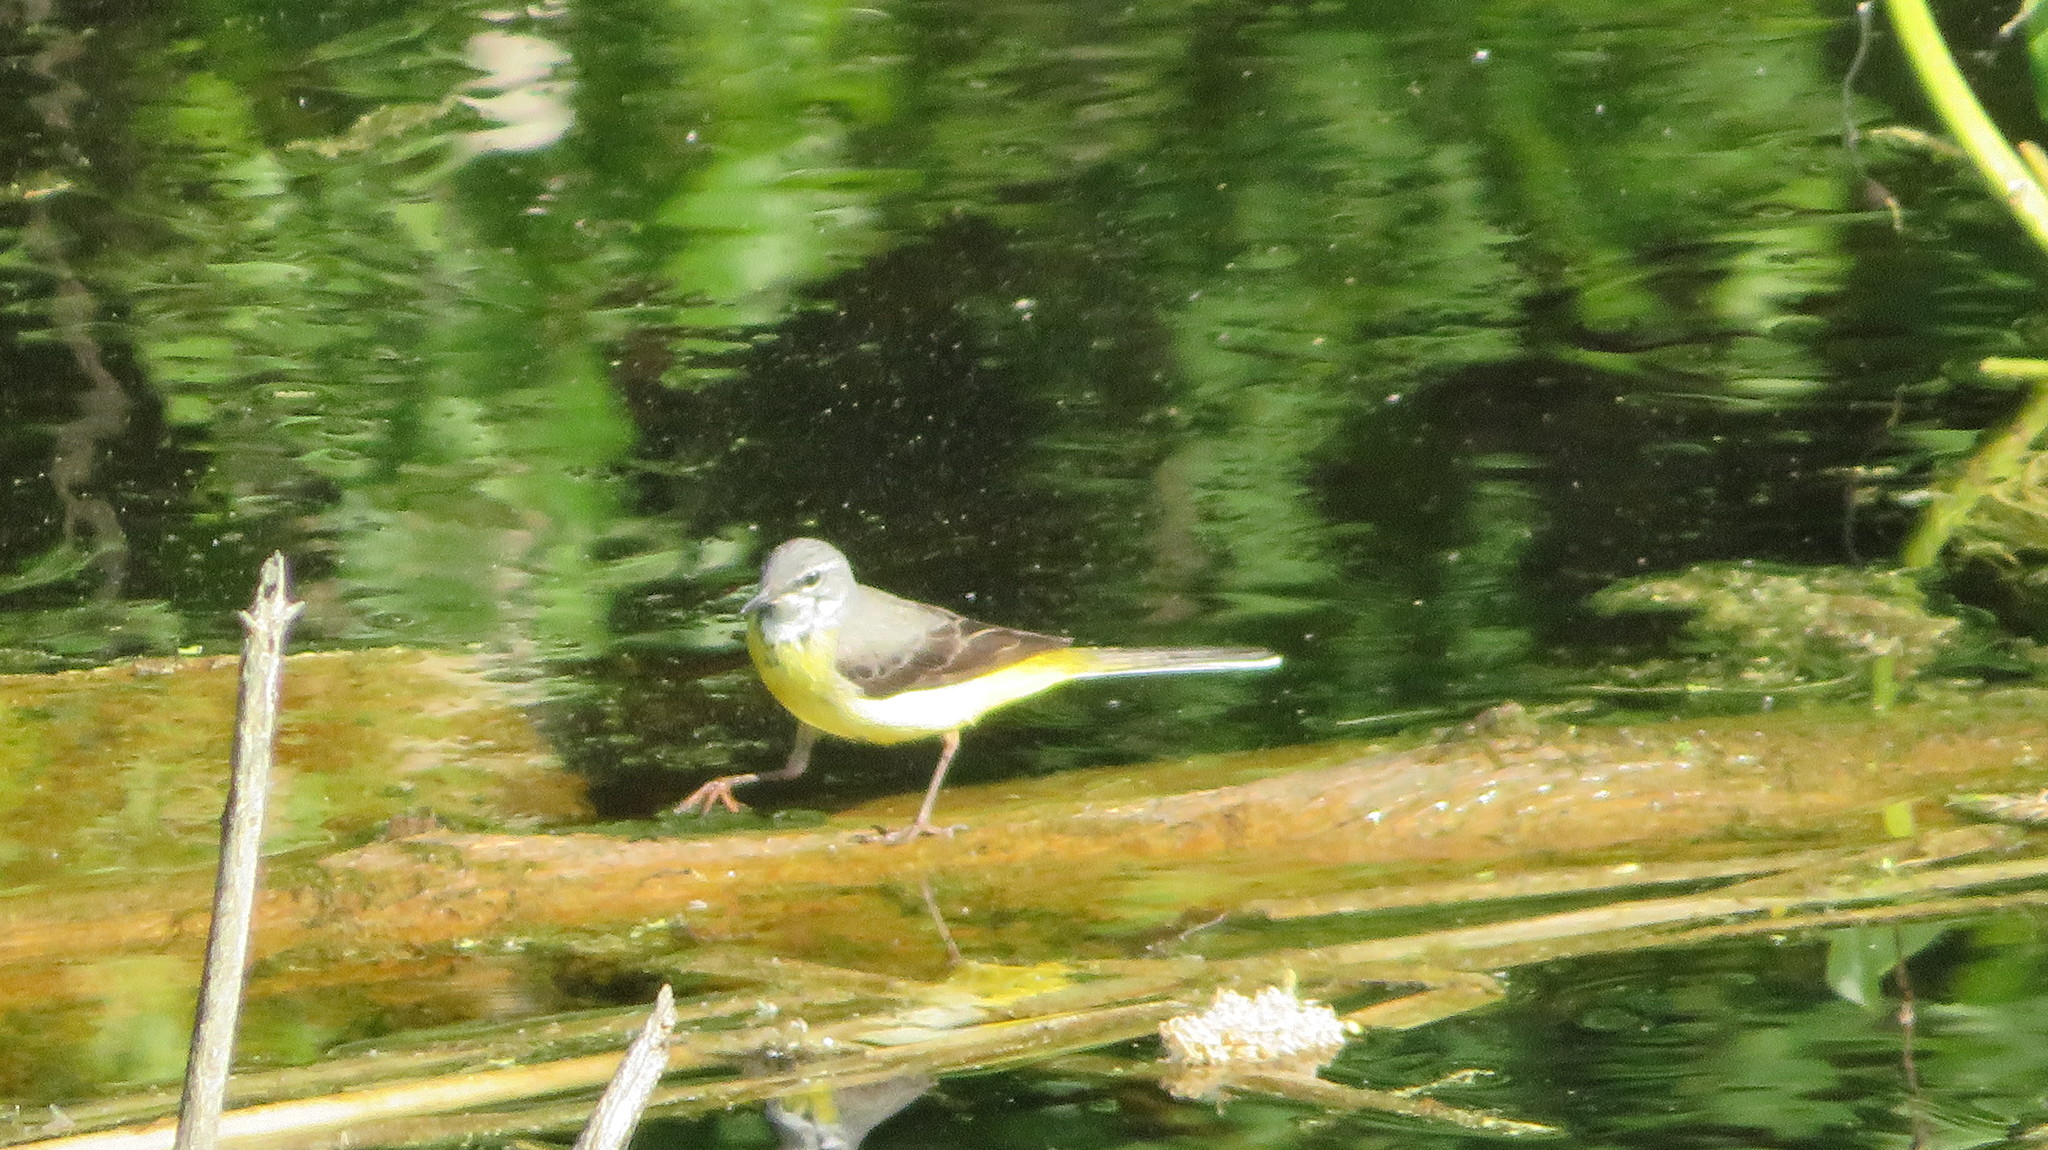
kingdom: Animalia
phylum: Chordata
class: Aves
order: Passeriformes
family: Motacillidae
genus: Motacilla
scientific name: Motacilla cinerea
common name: Grey wagtail
